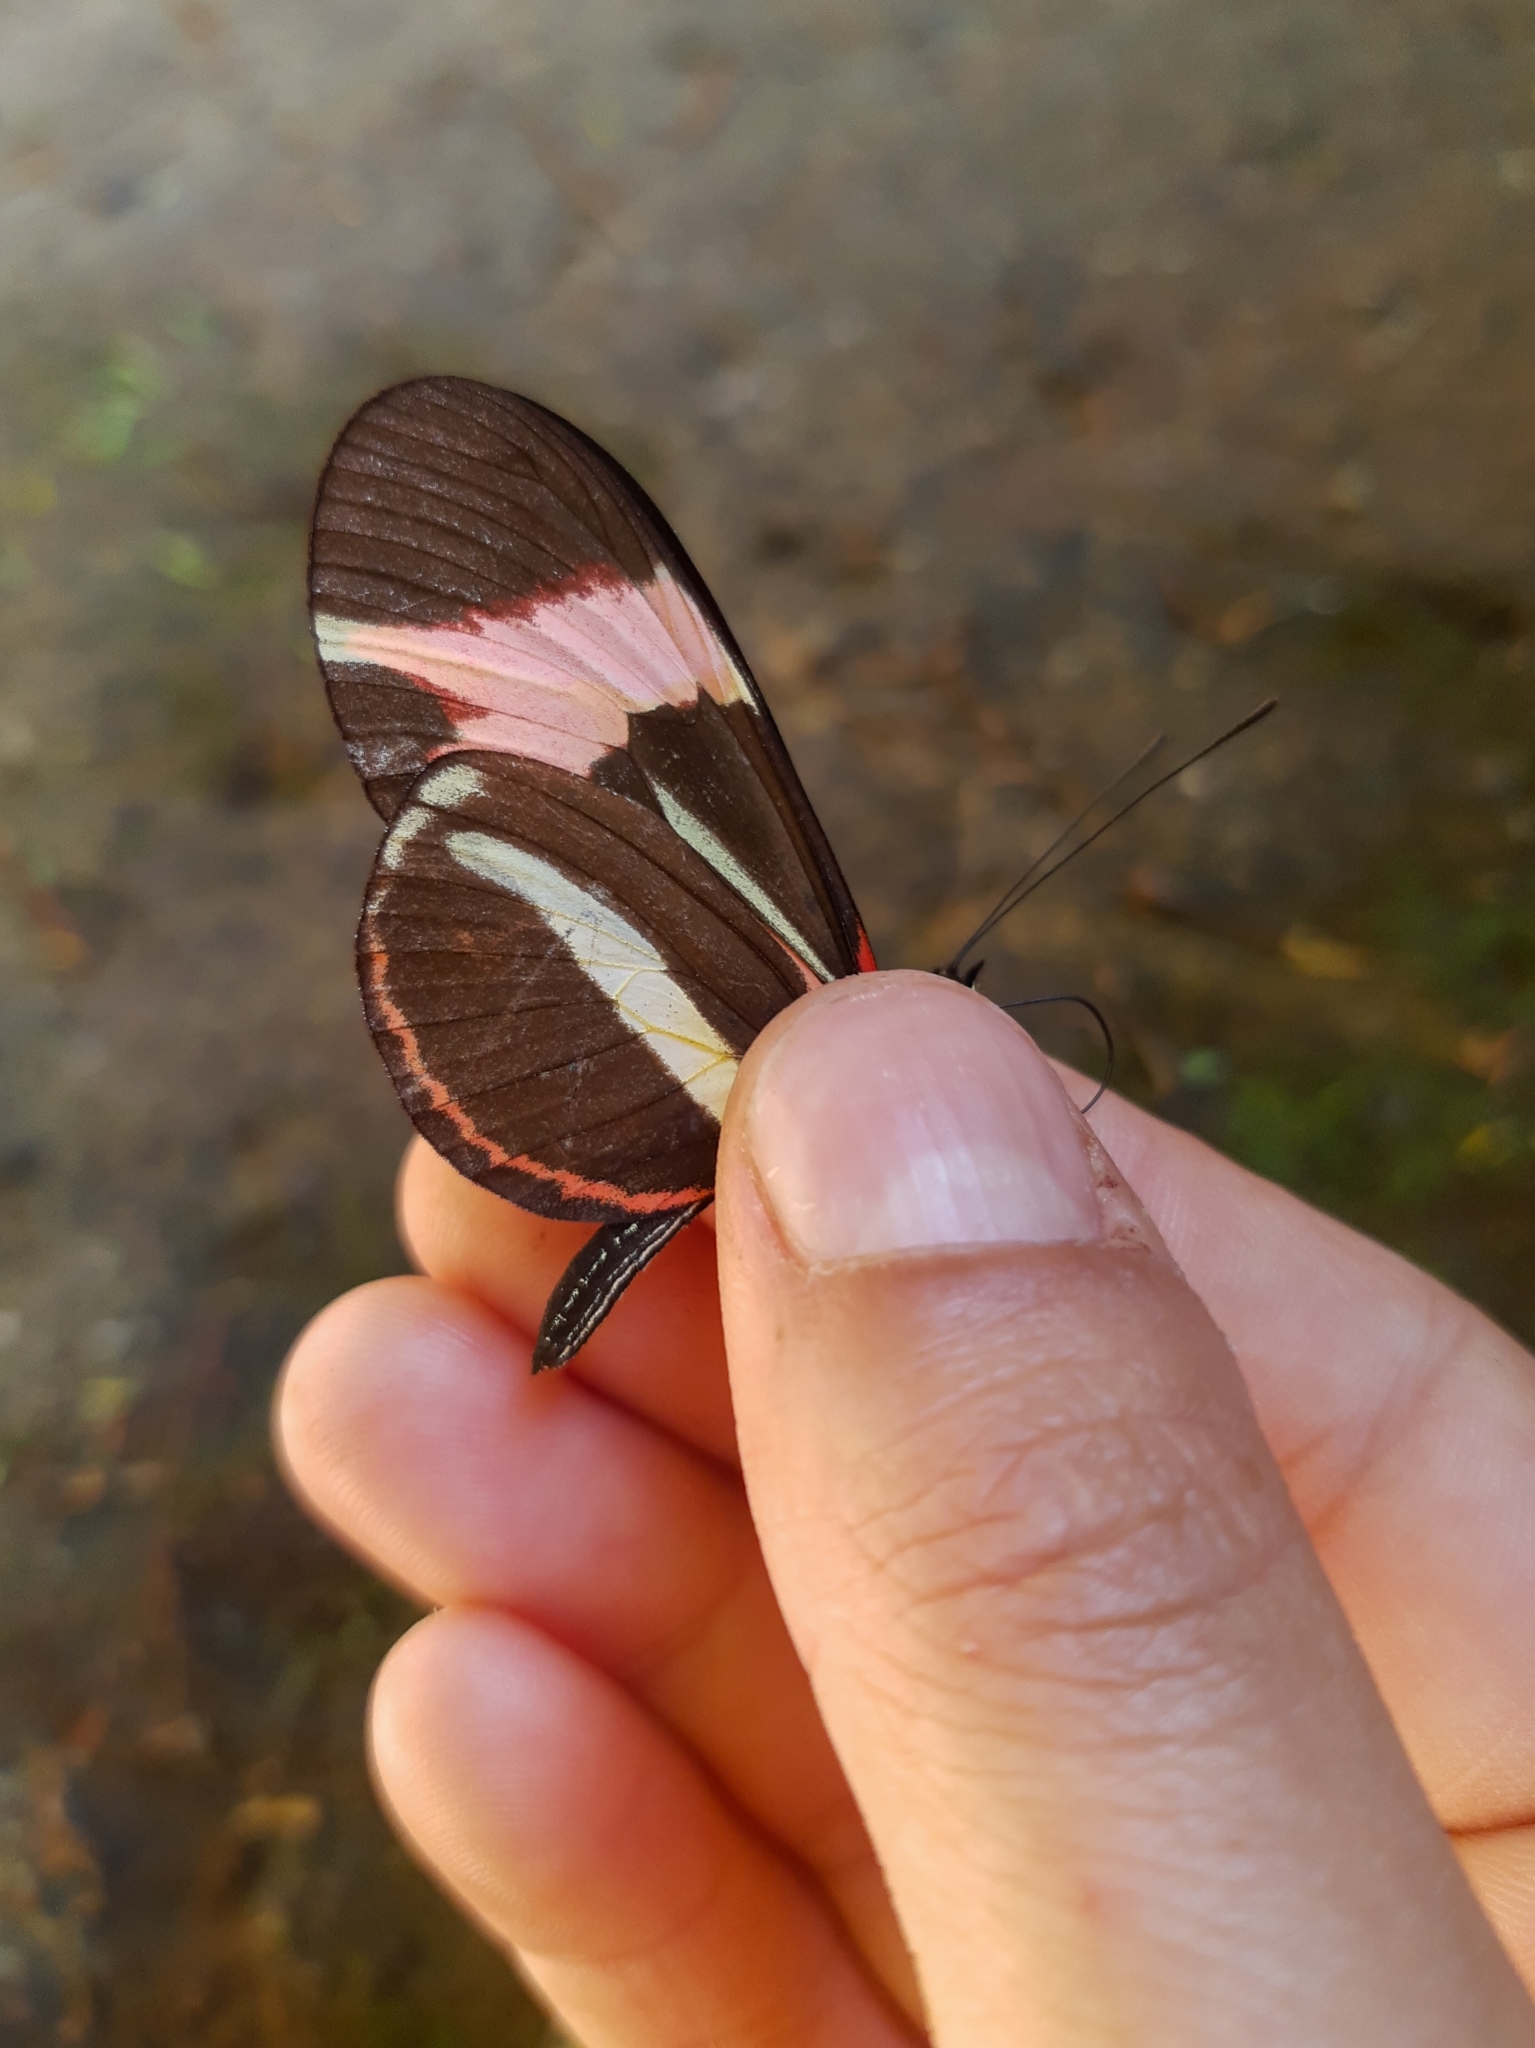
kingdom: Animalia
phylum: Arthropoda
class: Insecta
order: Lepidoptera
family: Nymphalidae
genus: Heliconius
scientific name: Heliconius besckei
